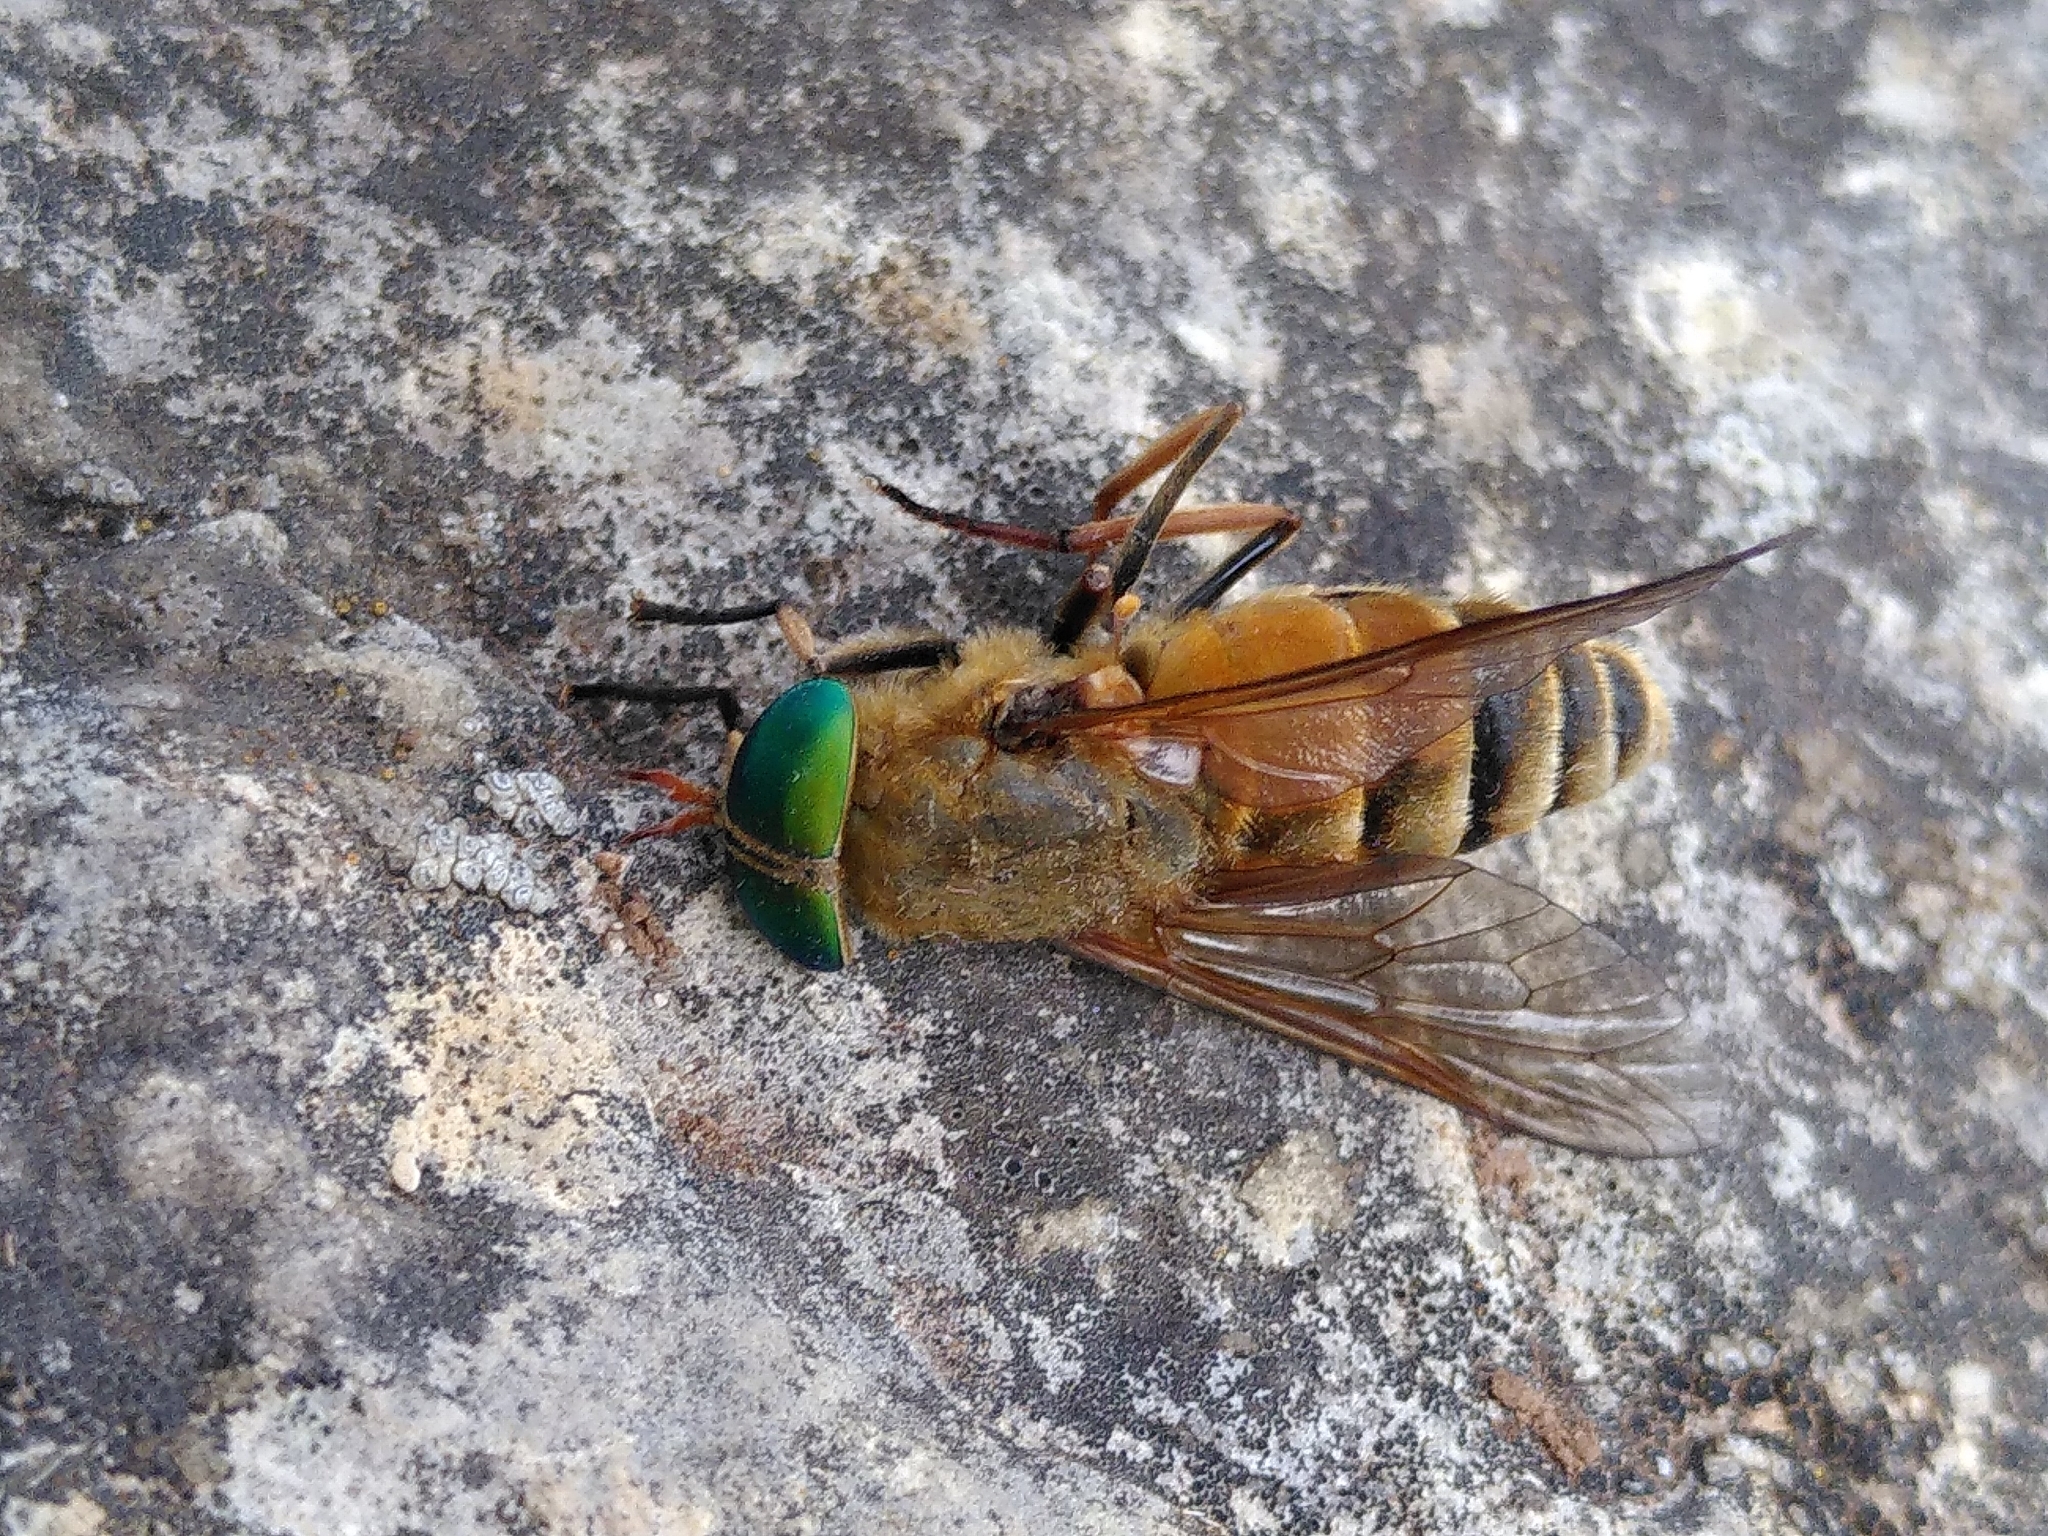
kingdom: Animalia
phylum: Arthropoda
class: Insecta
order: Diptera
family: Tabanidae
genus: Philipomyia
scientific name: Philipomyia aprica
